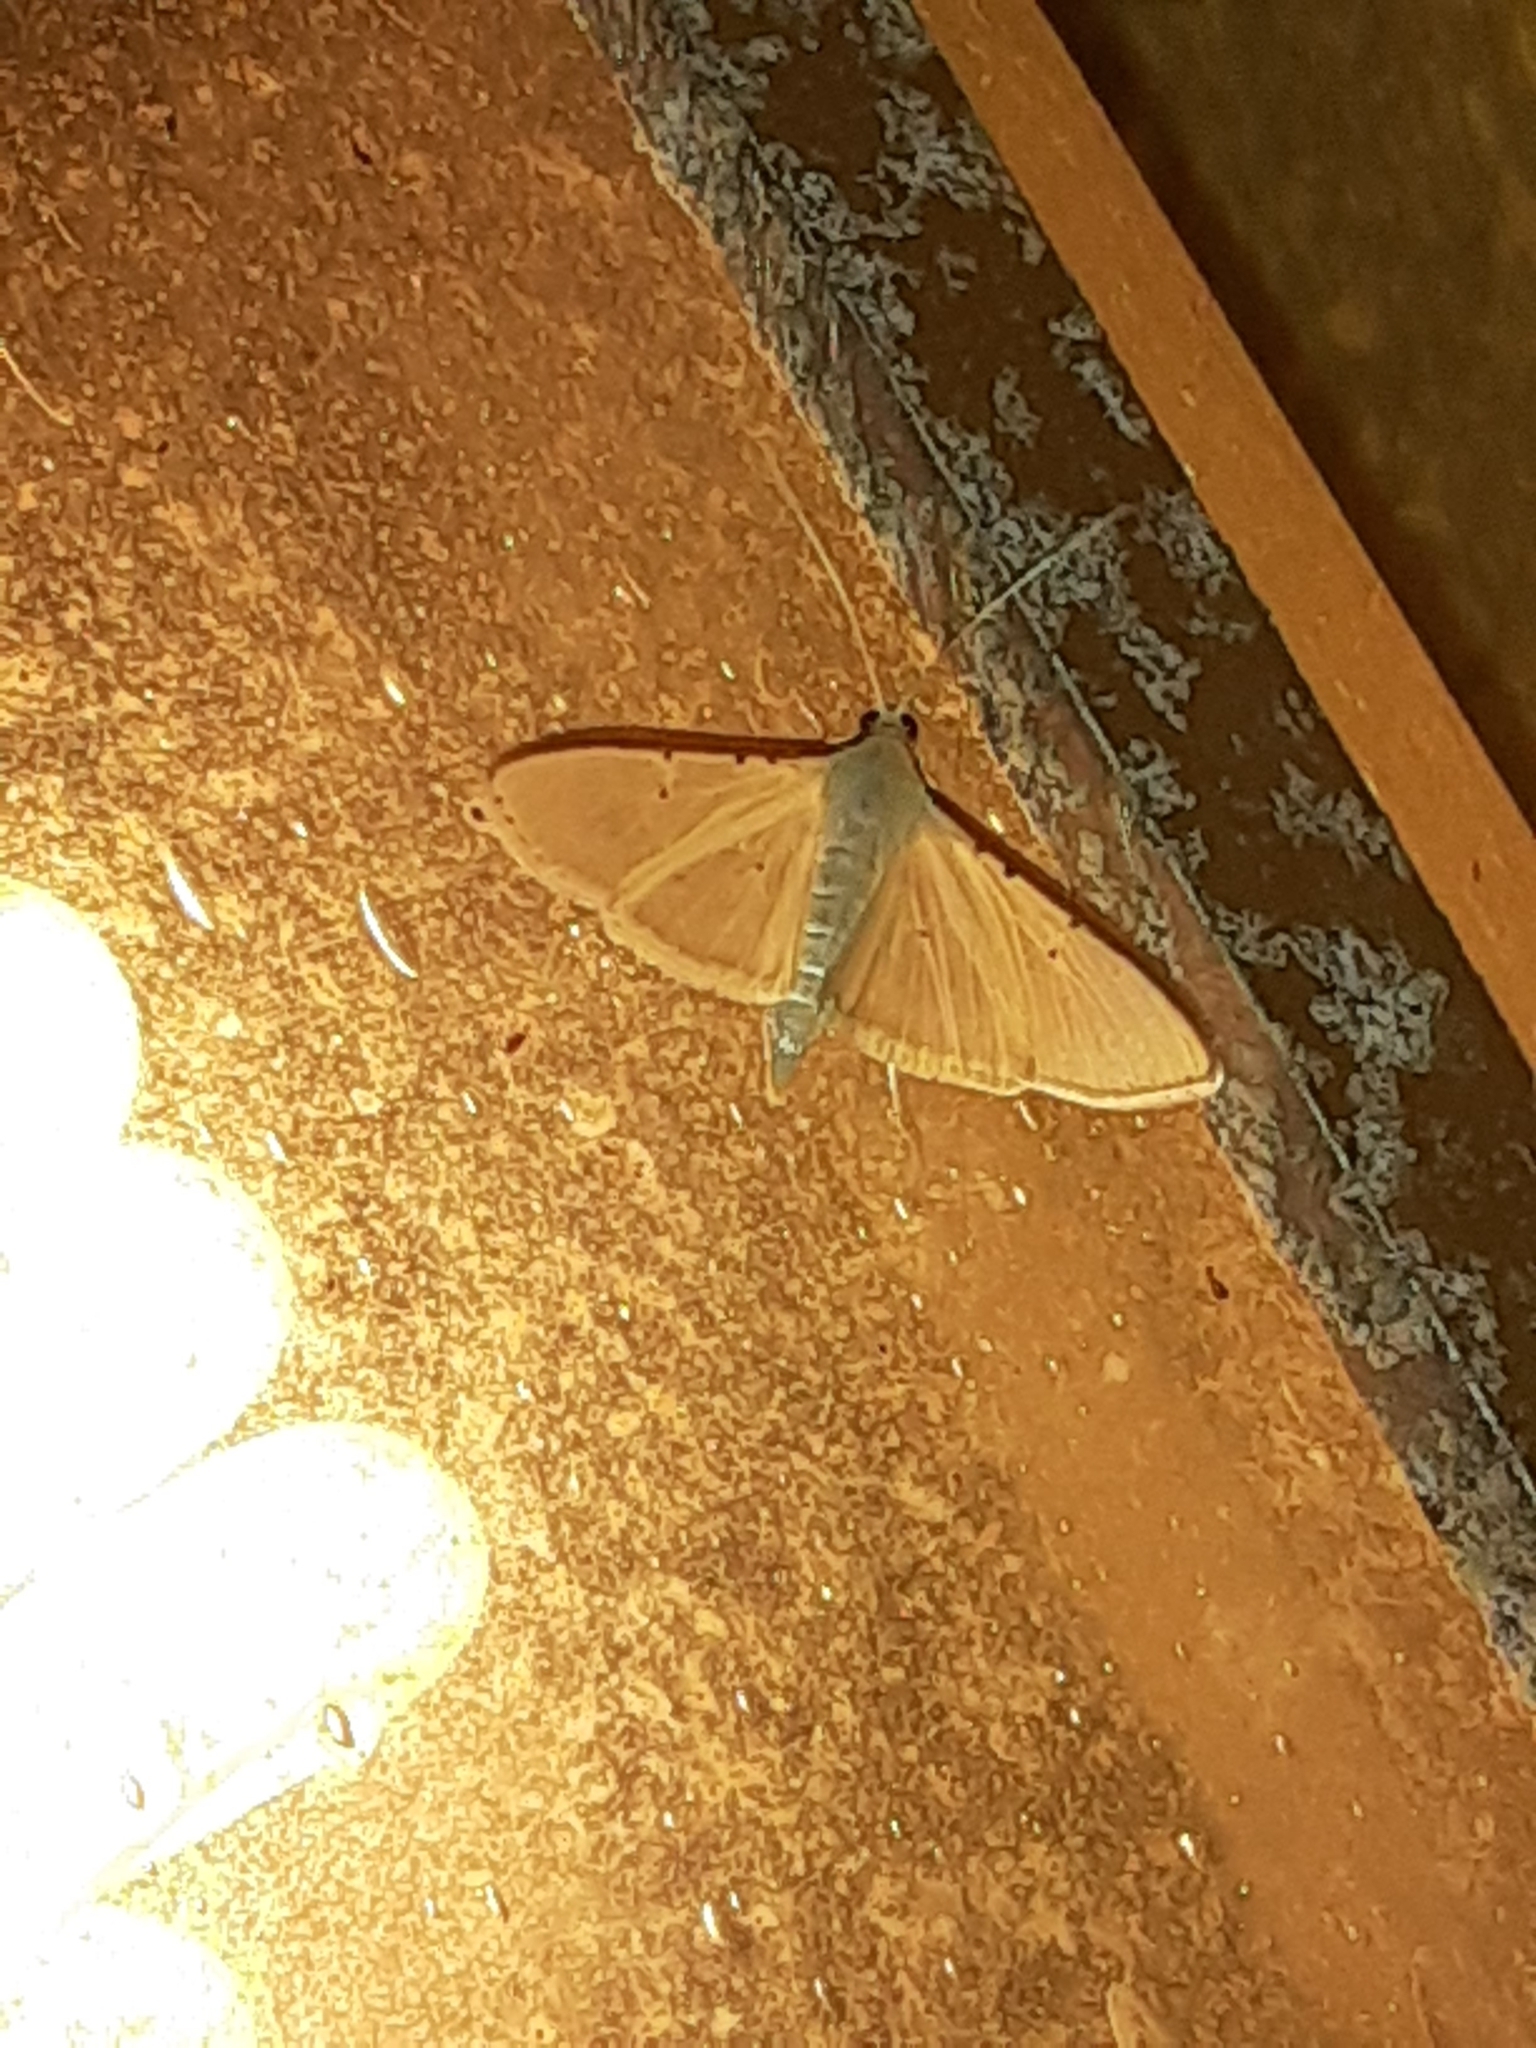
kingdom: Animalia
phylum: Arthropoda
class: Insecta
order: Lepidoptera
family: Crambidae
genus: Palpita
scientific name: Palpita quadristigmalis
